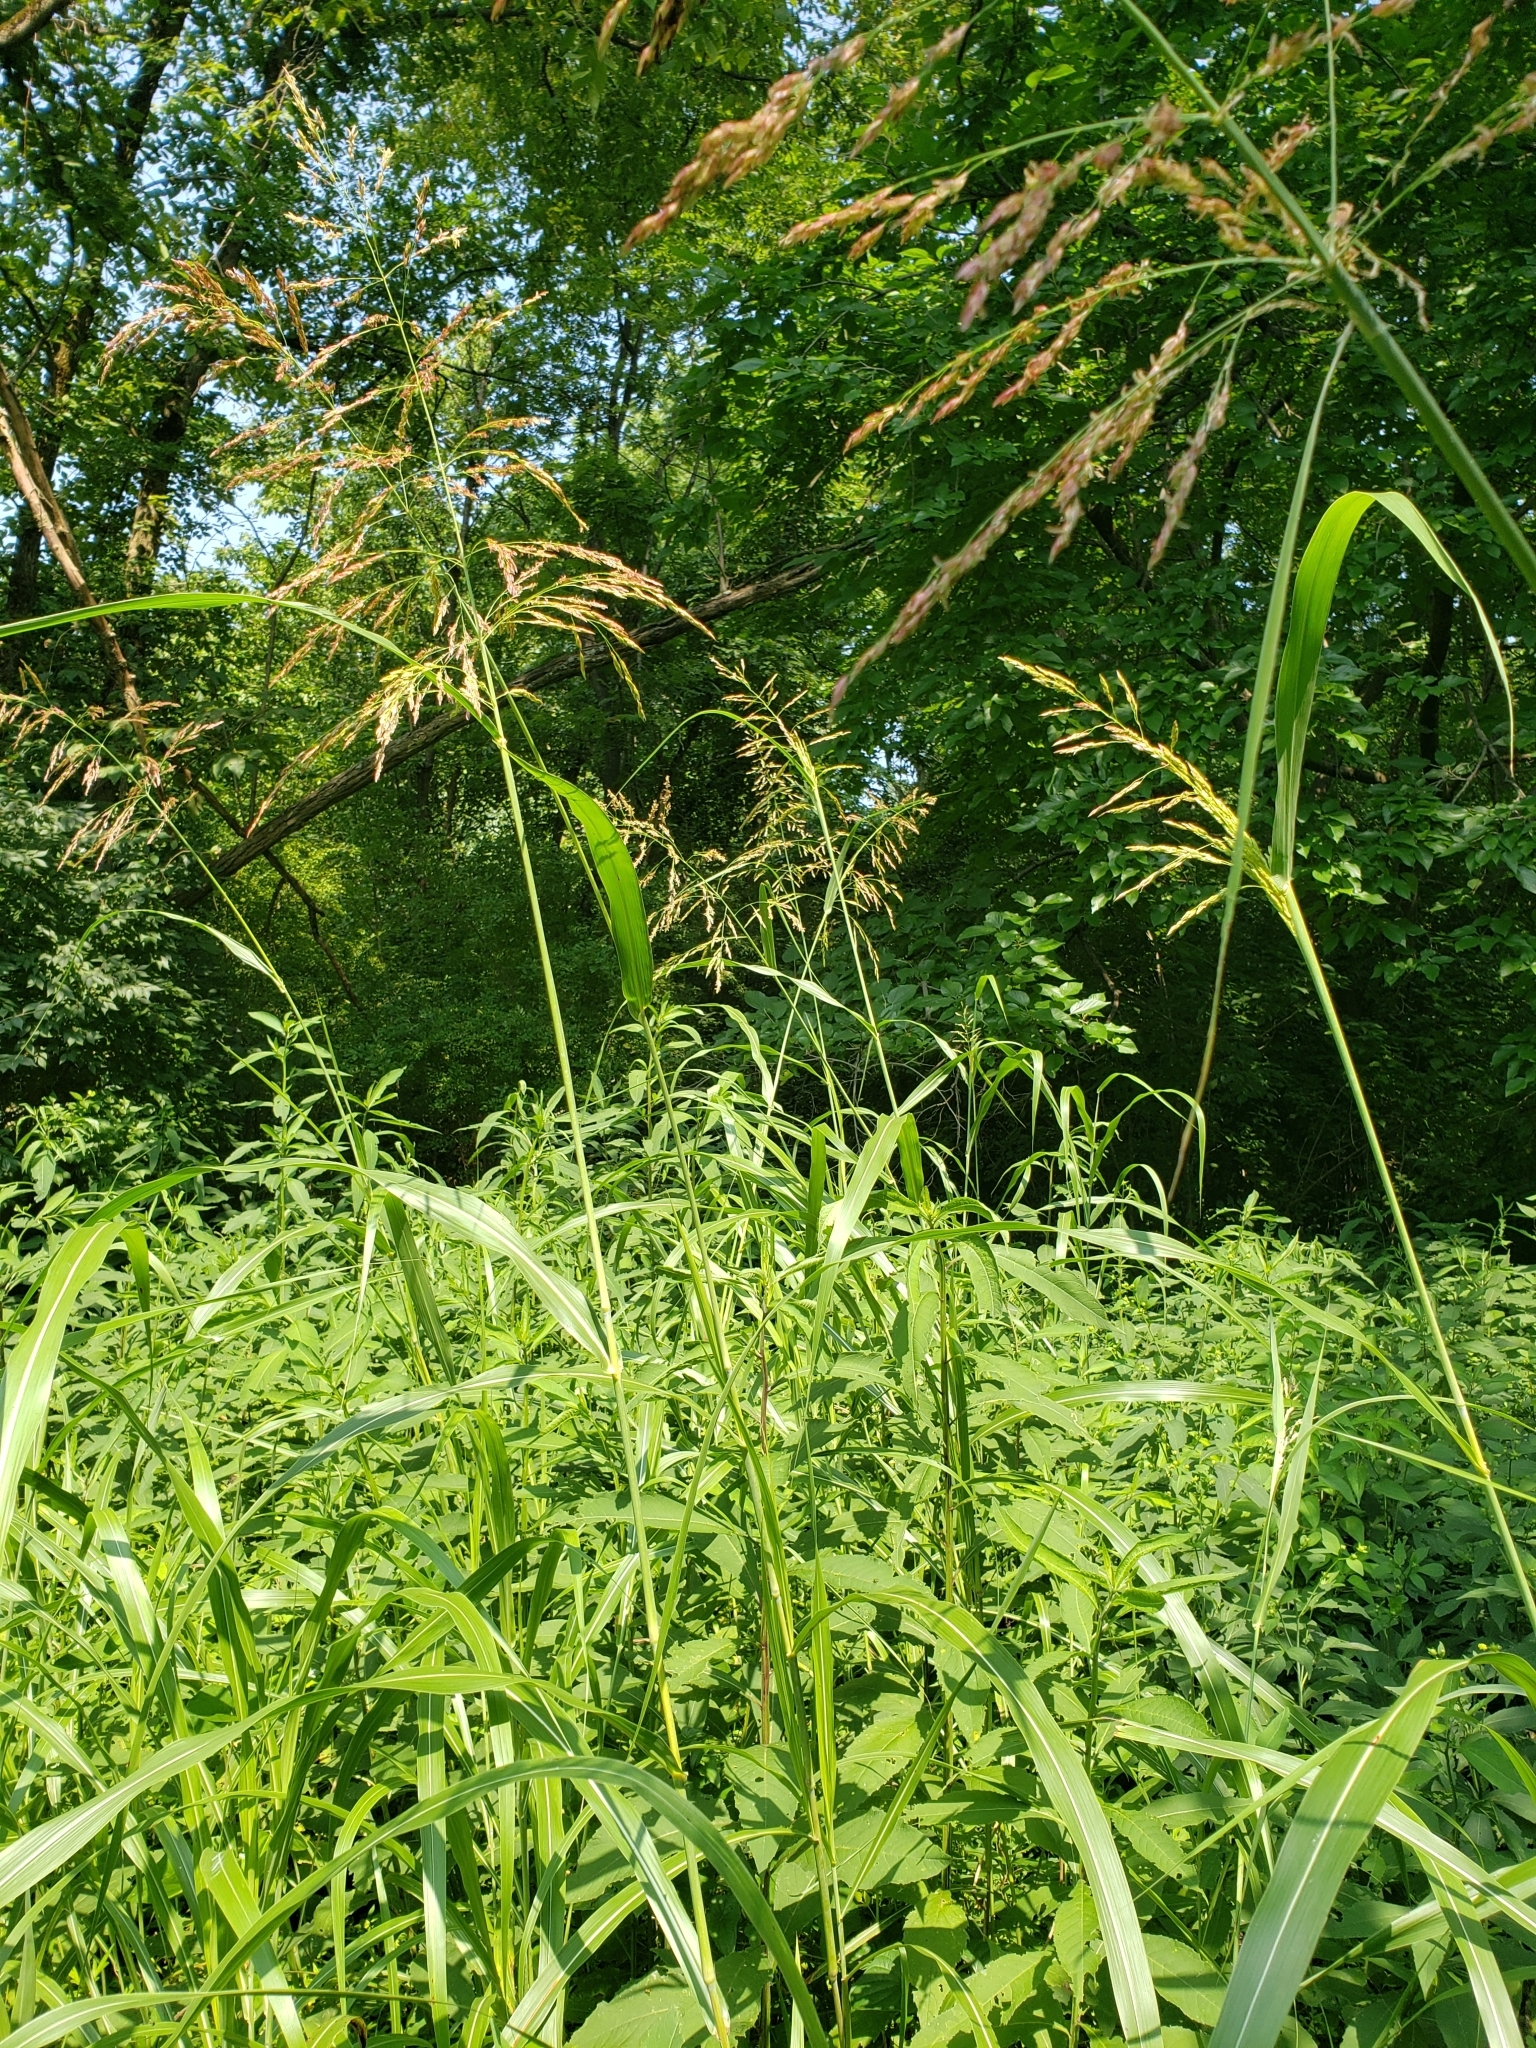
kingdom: Plantae
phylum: Tracheophyta
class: Liliopsida
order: Poales
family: Poaceae
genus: Sorghum
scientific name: Sorghum halepense
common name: Johnson-grass
